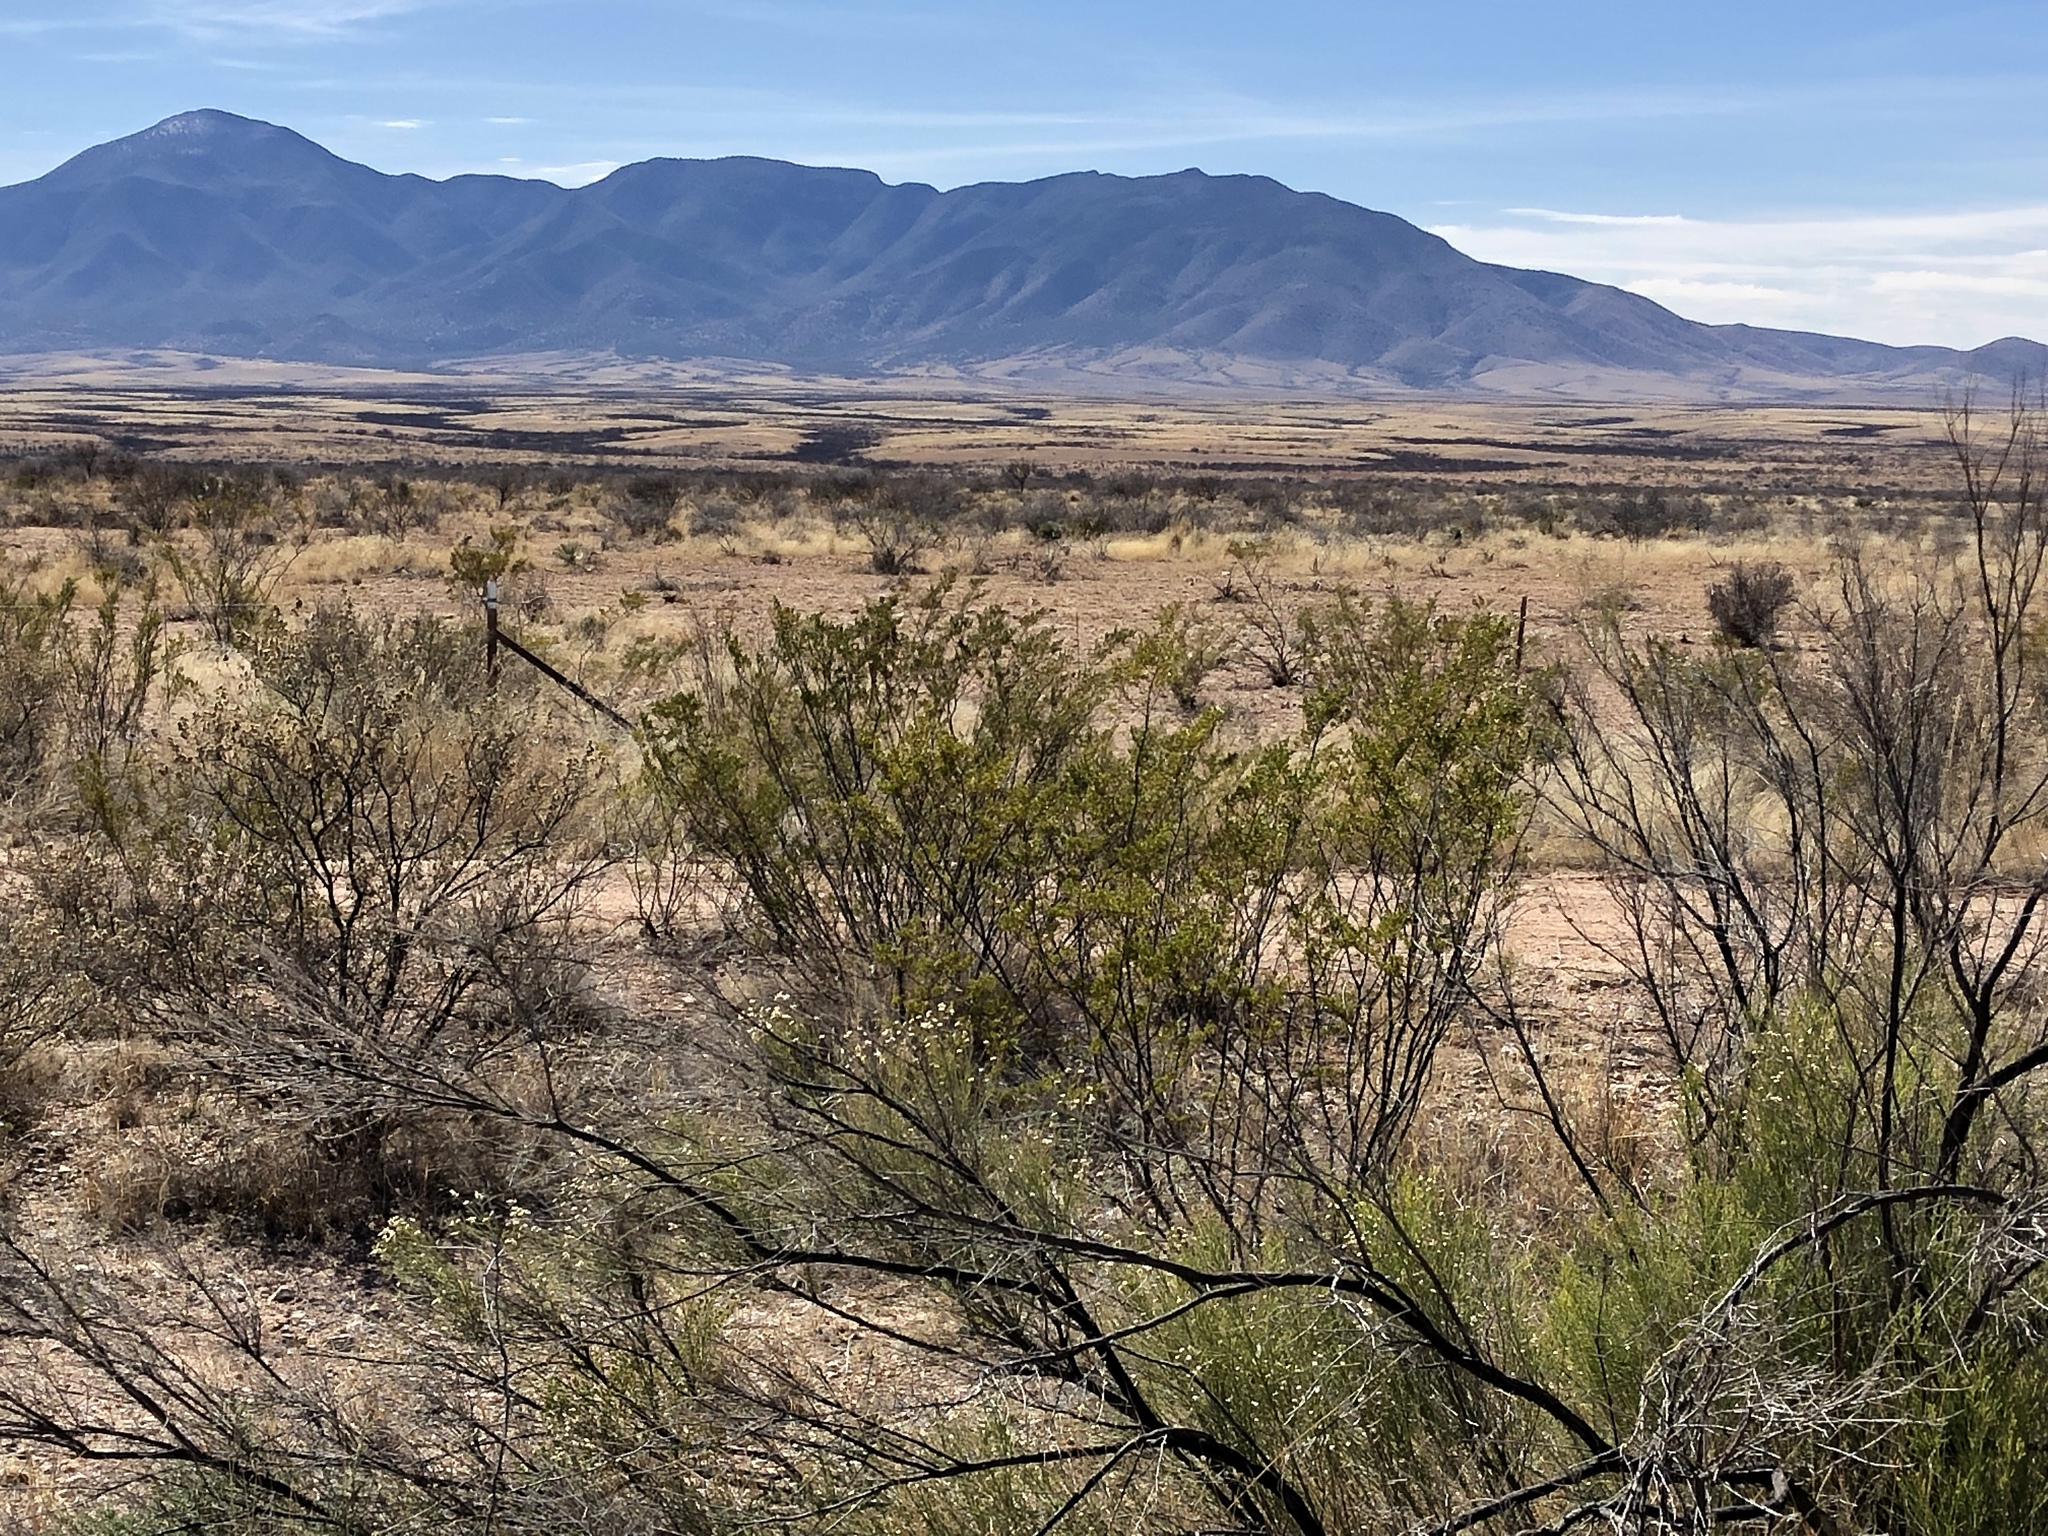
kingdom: Plantae
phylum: Tracheophyta
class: Magnoliopsida
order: Zygophyllales
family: Zygophyllaceae
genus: Larrea
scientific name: Larrea tridentata
